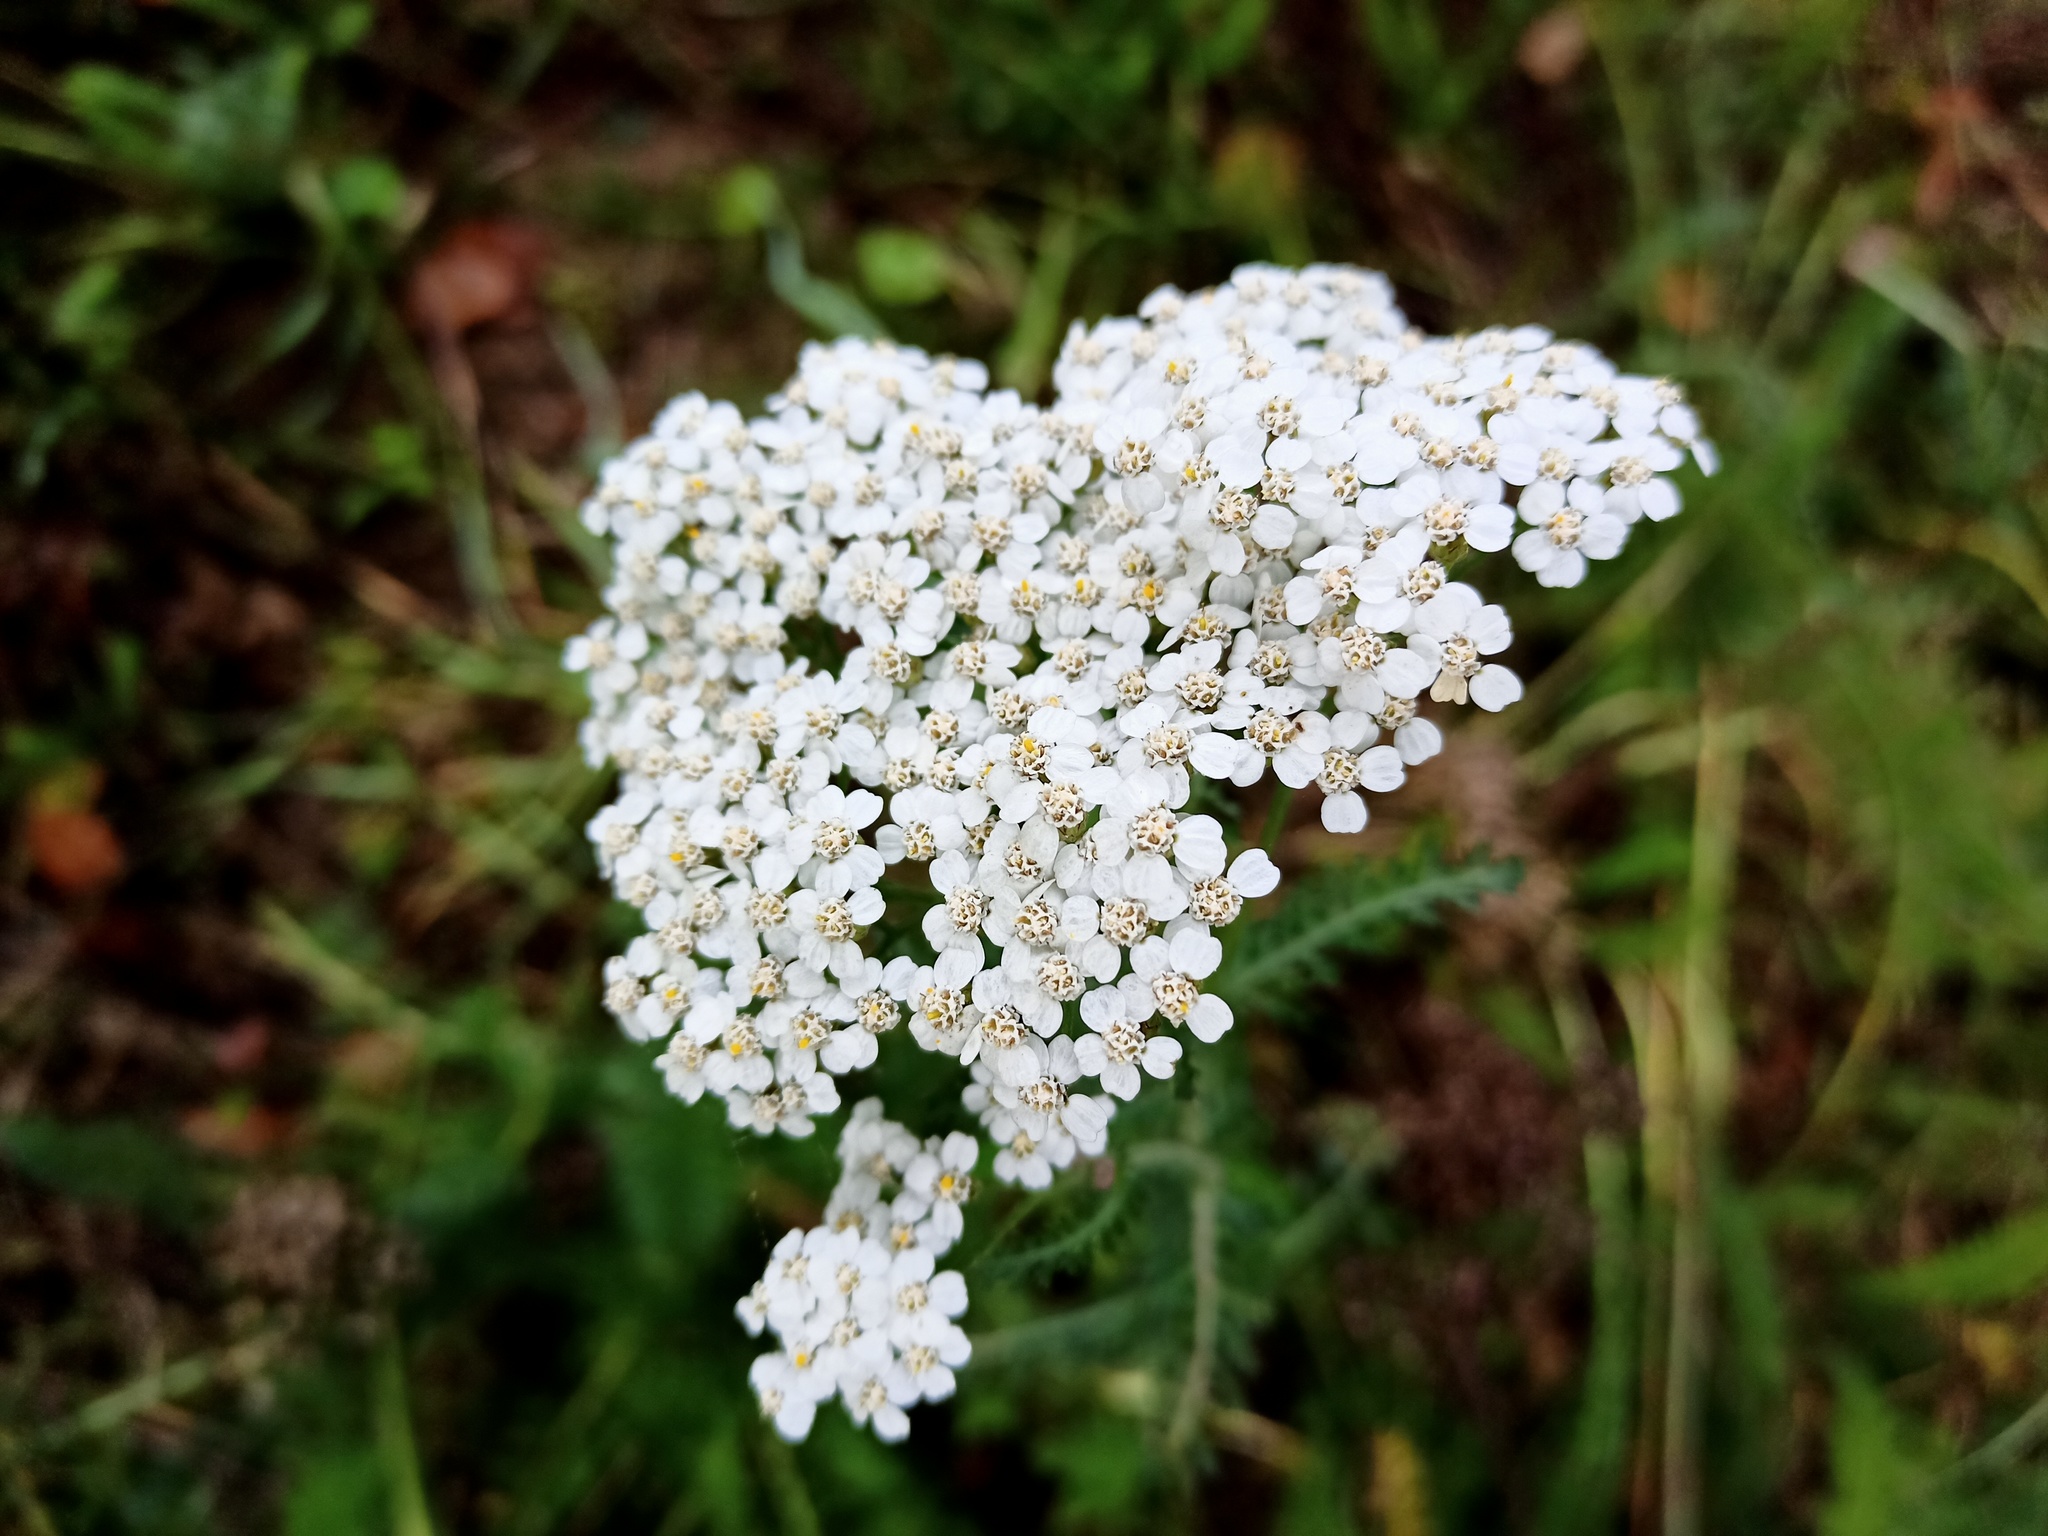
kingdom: Plantae
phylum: Tracheophyta
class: Magnoliopsida
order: Asterales
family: Asteraceae
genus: Achillea
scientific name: Achillea millefolium
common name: Yarrow
